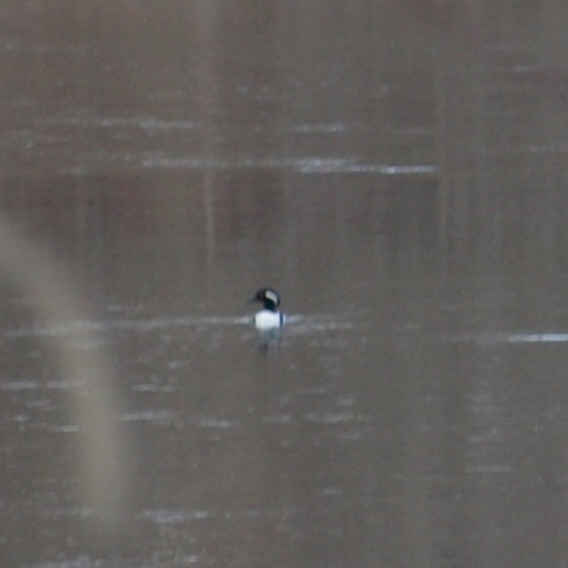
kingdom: Animalia
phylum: Chordata
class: Aves
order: Anseriformes
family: Anatidae
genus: Lophodytes
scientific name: Lophodytes cucullatus
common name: Hooded merganser
